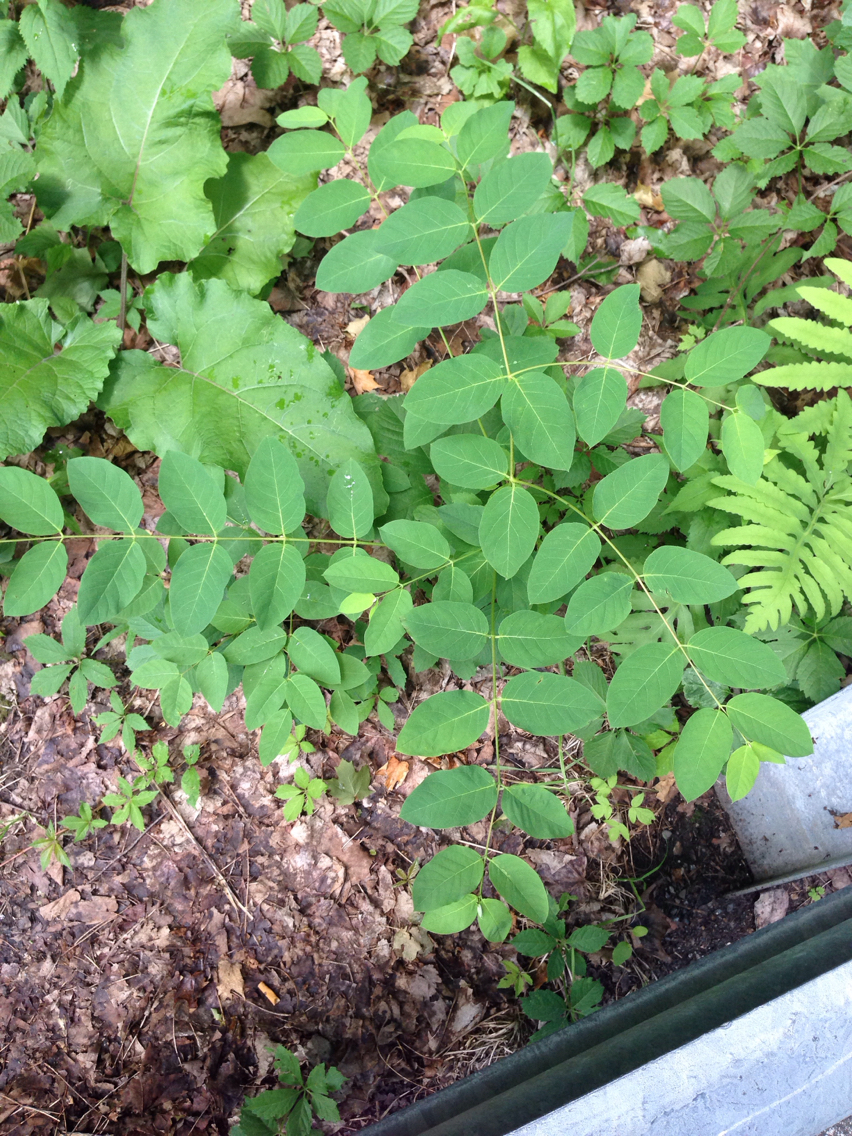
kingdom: Plantae
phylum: Tracheophyta
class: Magnoliopsida
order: Gentianales
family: Apocynaceae
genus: Apocynum
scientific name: Apocynum androsaemifolium
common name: Spreading dogbane
